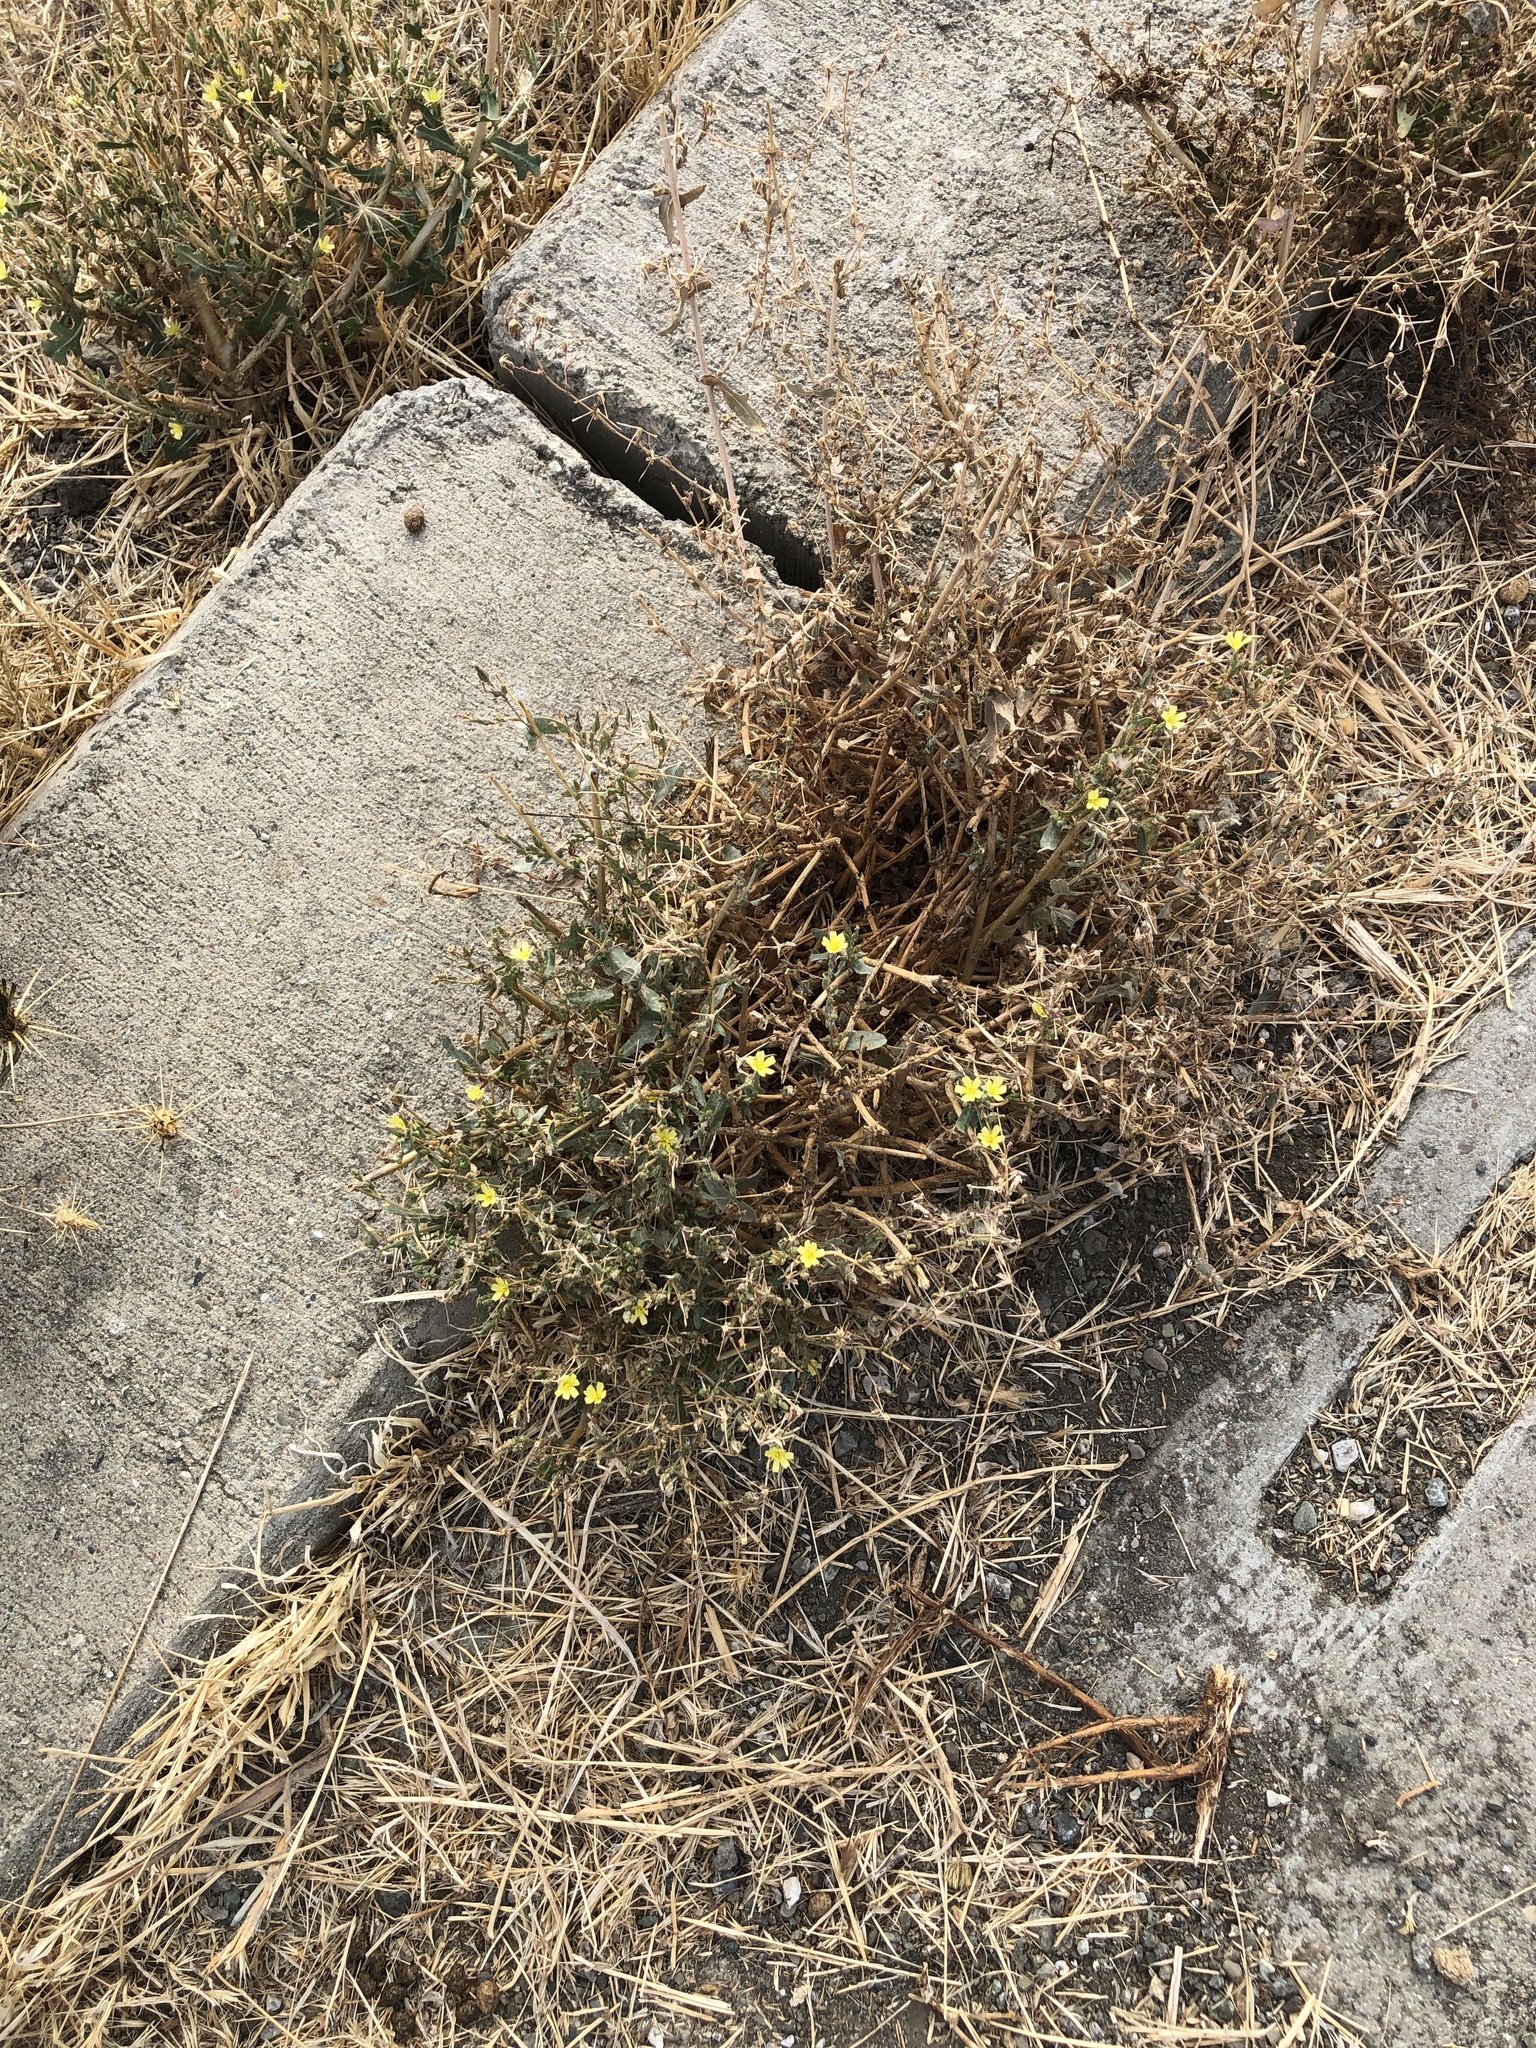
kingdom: Plantae
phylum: Tracheophyta
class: Magnoliopsida
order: Asterales
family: Asteraceae
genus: Lactuca
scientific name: Lactuca serriola
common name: Prickly lettuce
